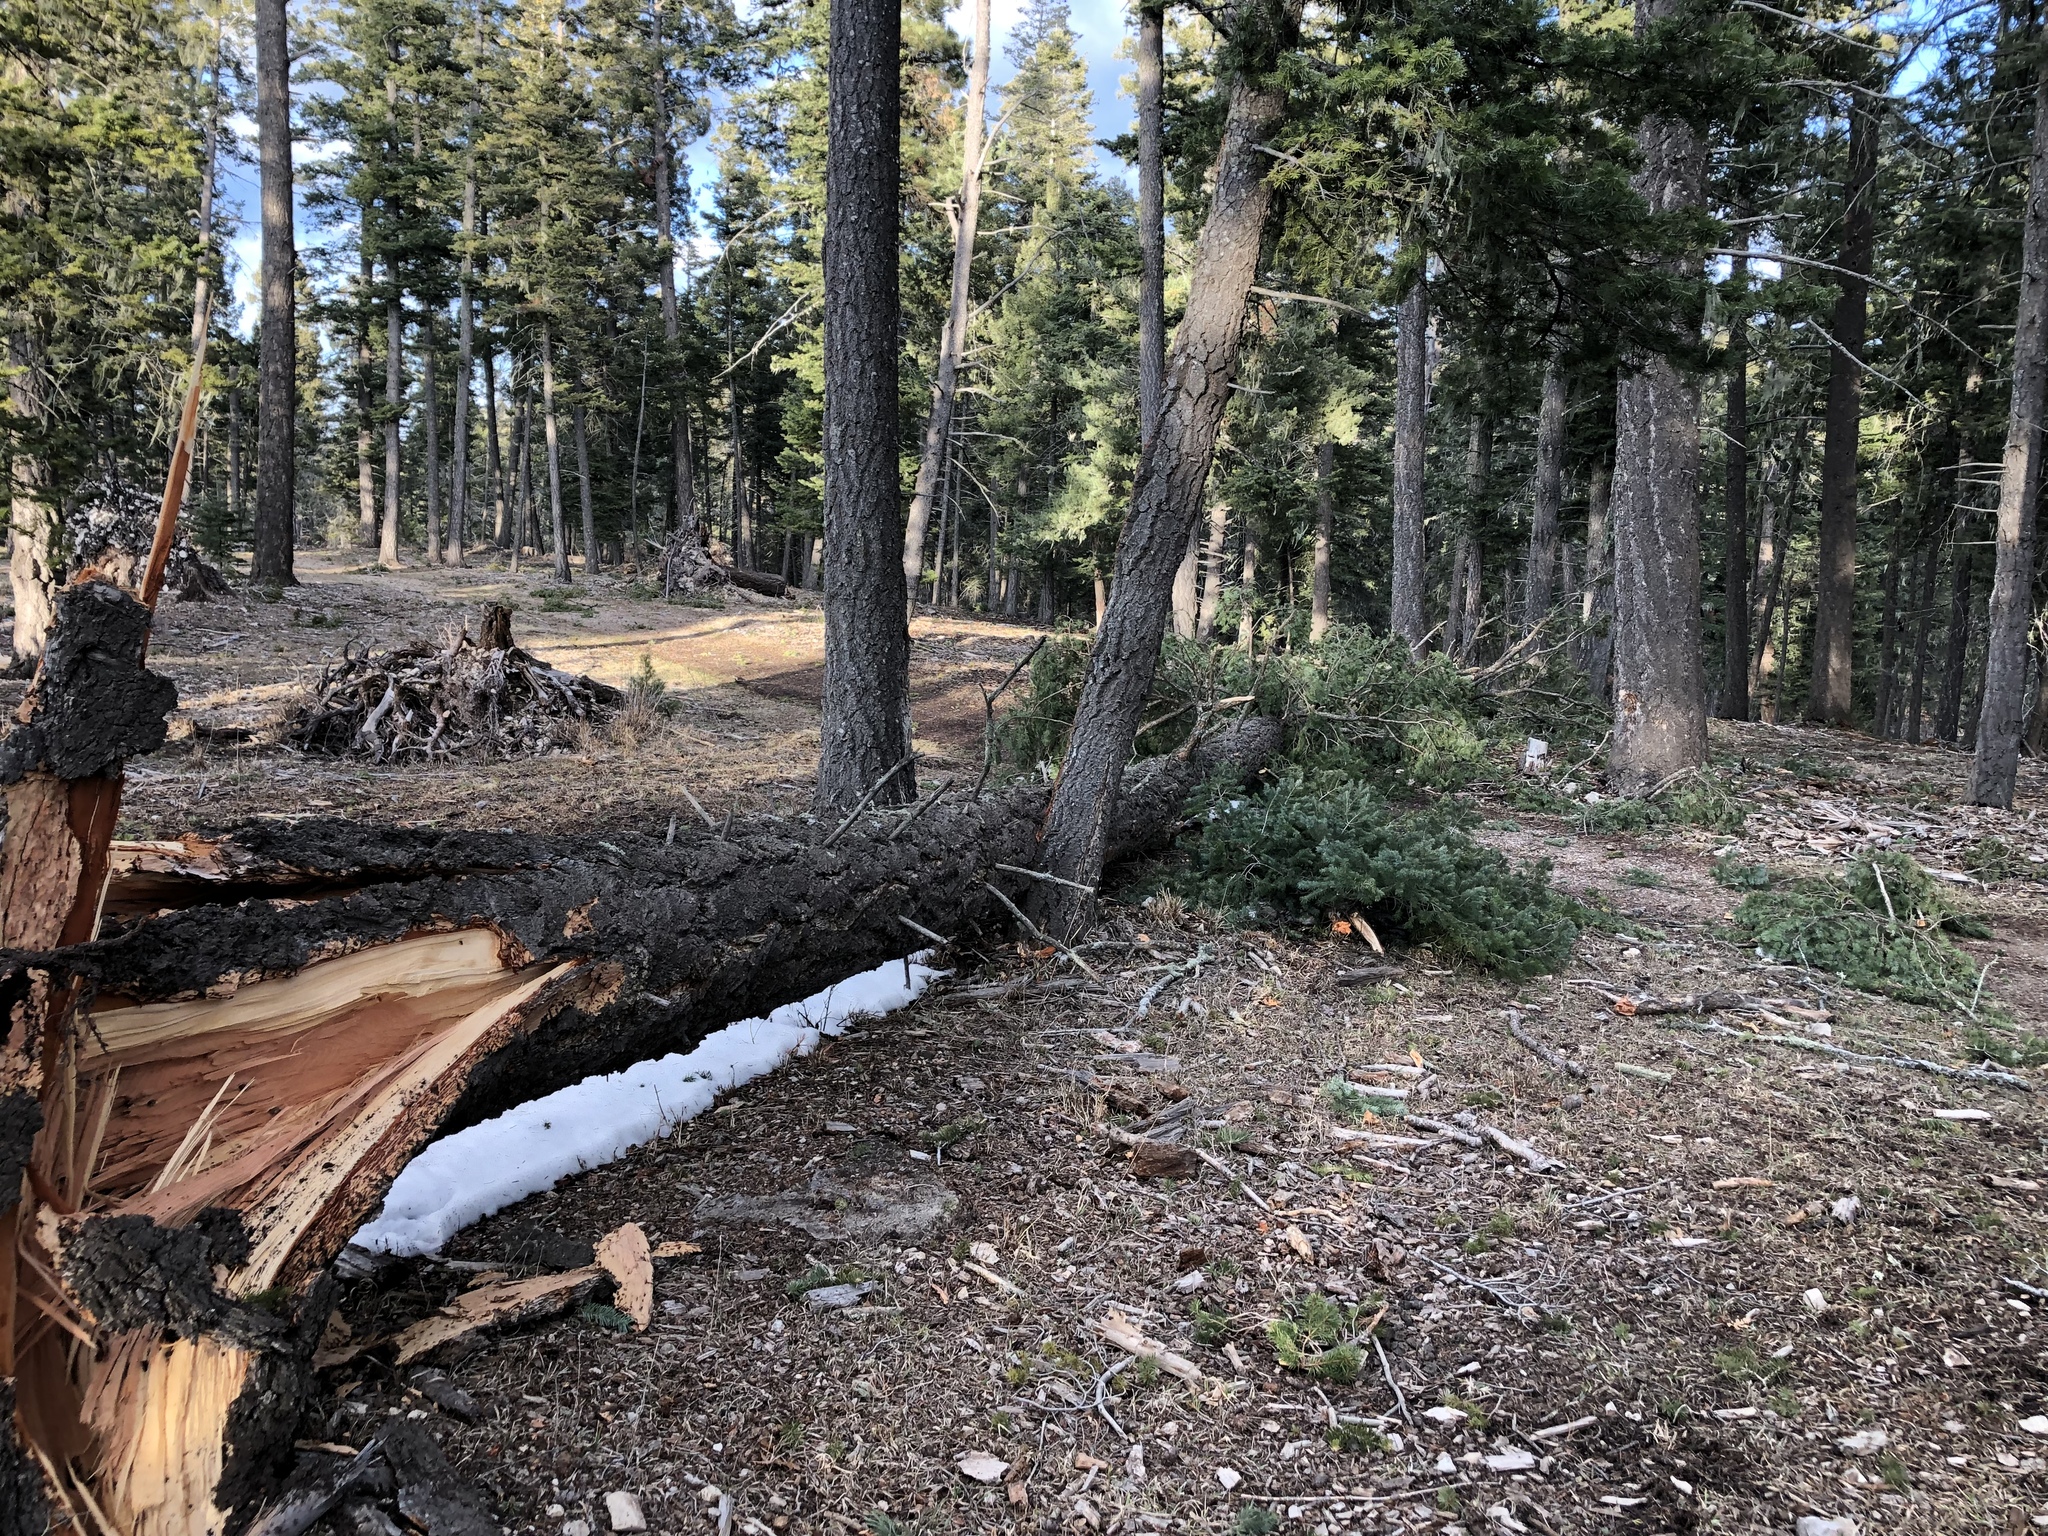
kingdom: Plantae
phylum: Tracheophyta
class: Pinopsida
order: Pinales
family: Pinaceae
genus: Pseudotsuga
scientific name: Pseudotsuga menziesii
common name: Douglas fir
